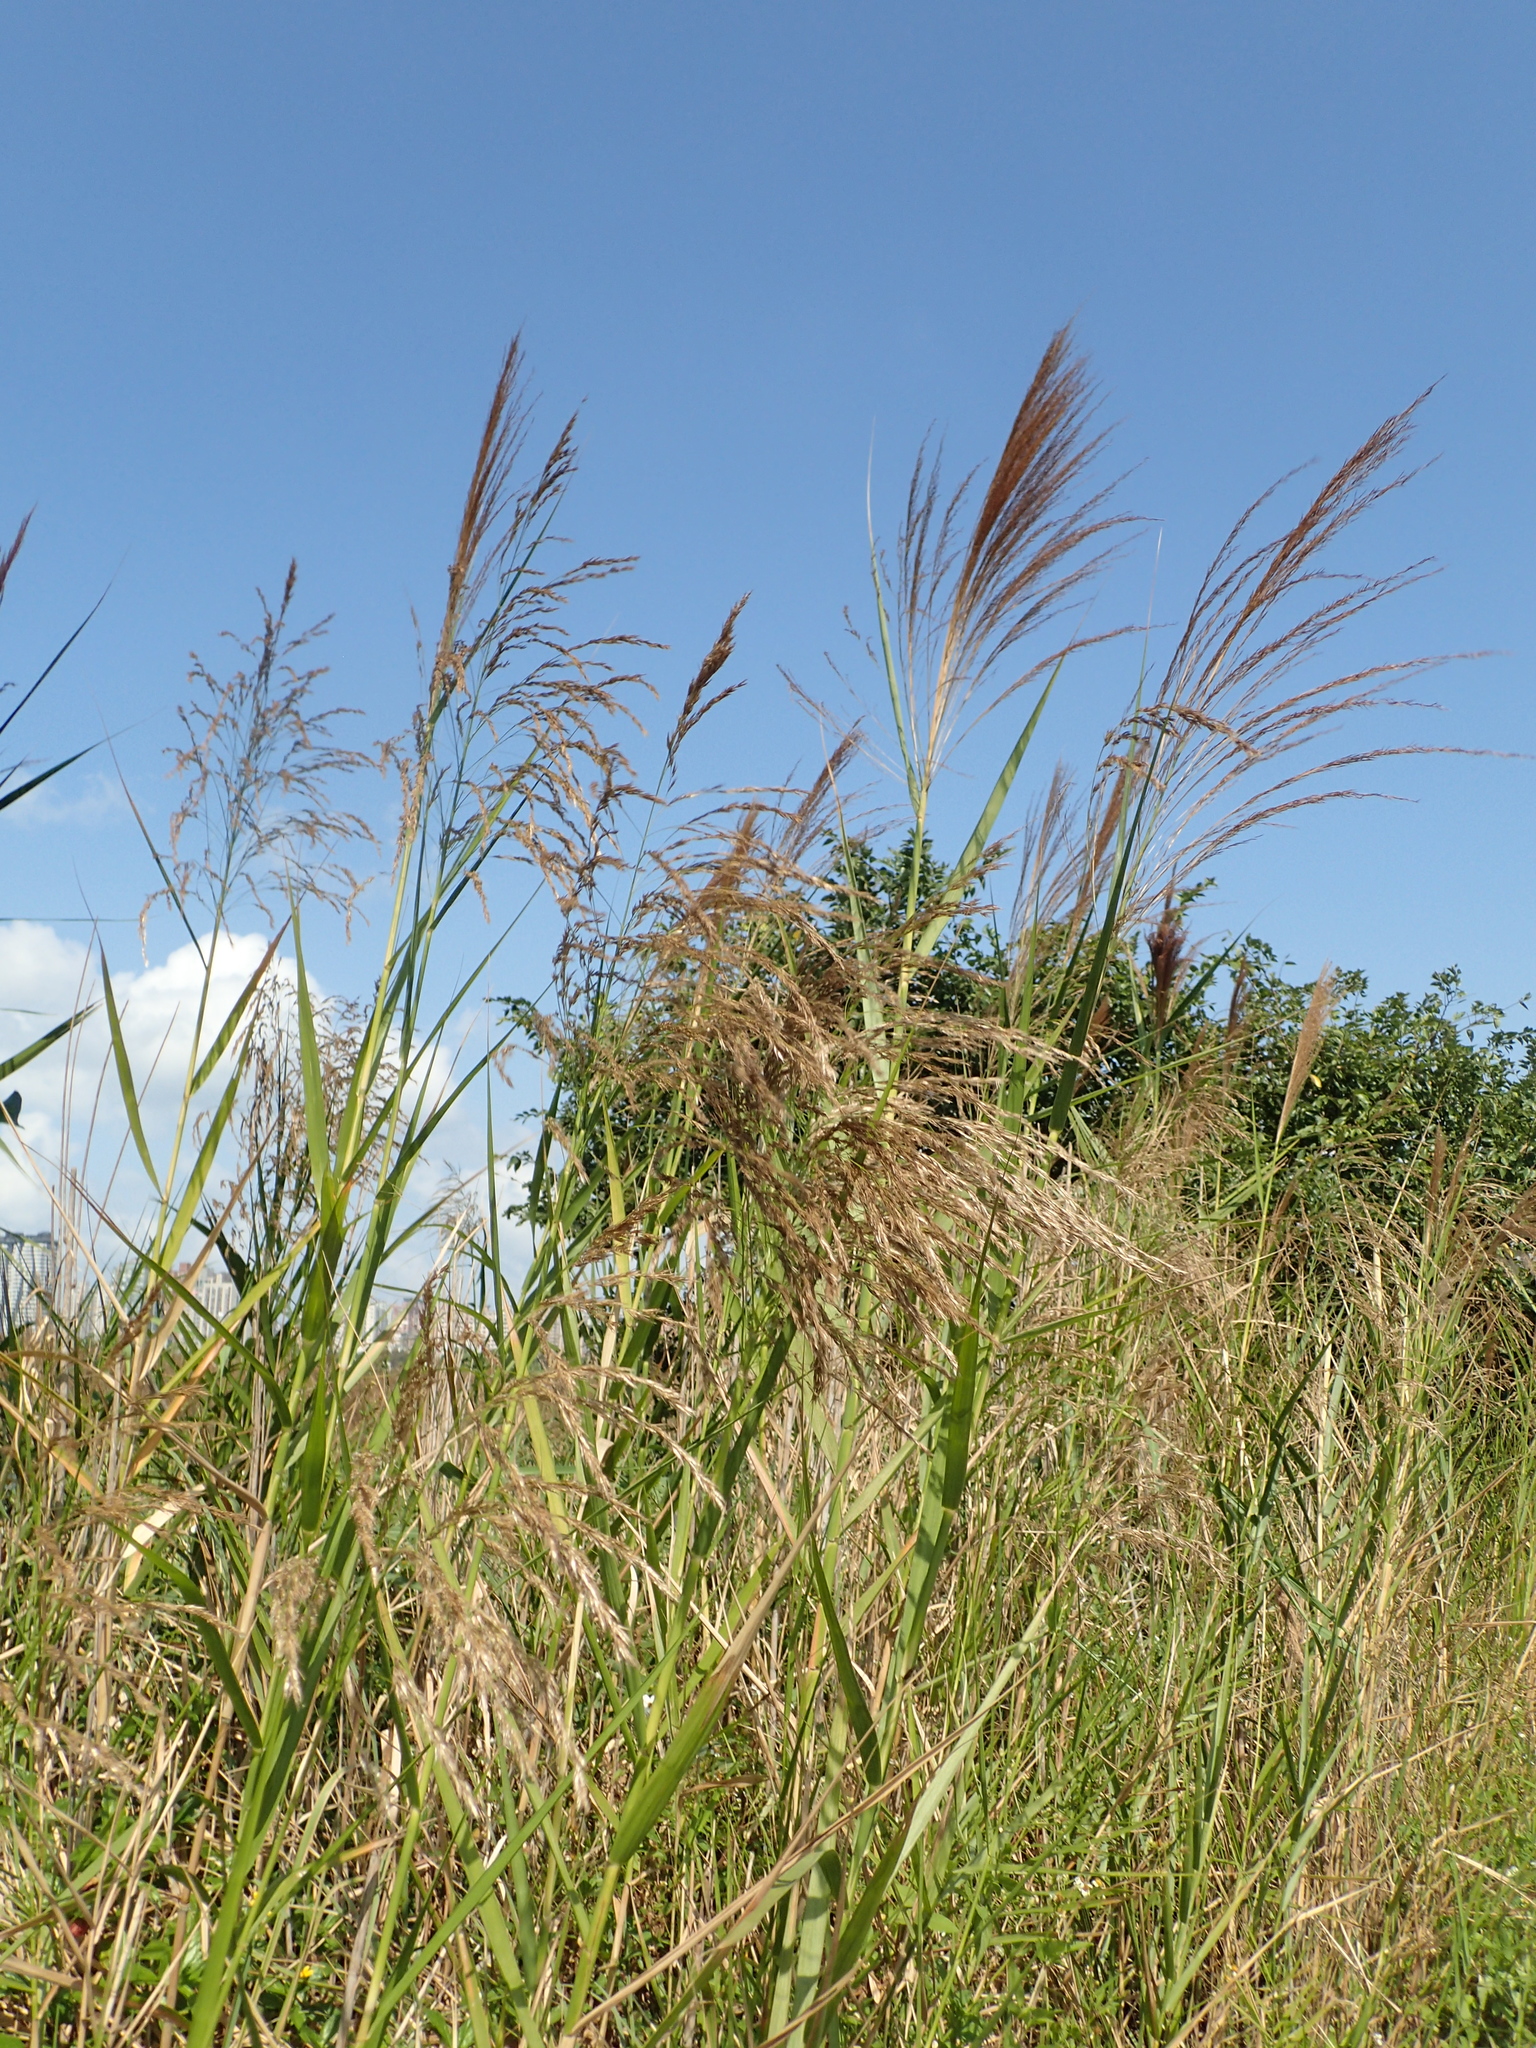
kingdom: Plantae
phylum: Tracheophyta
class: Liliopsida
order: Poales
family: Poaceae
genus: Phragmites
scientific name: Phragmites karka
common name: Tropical reed
